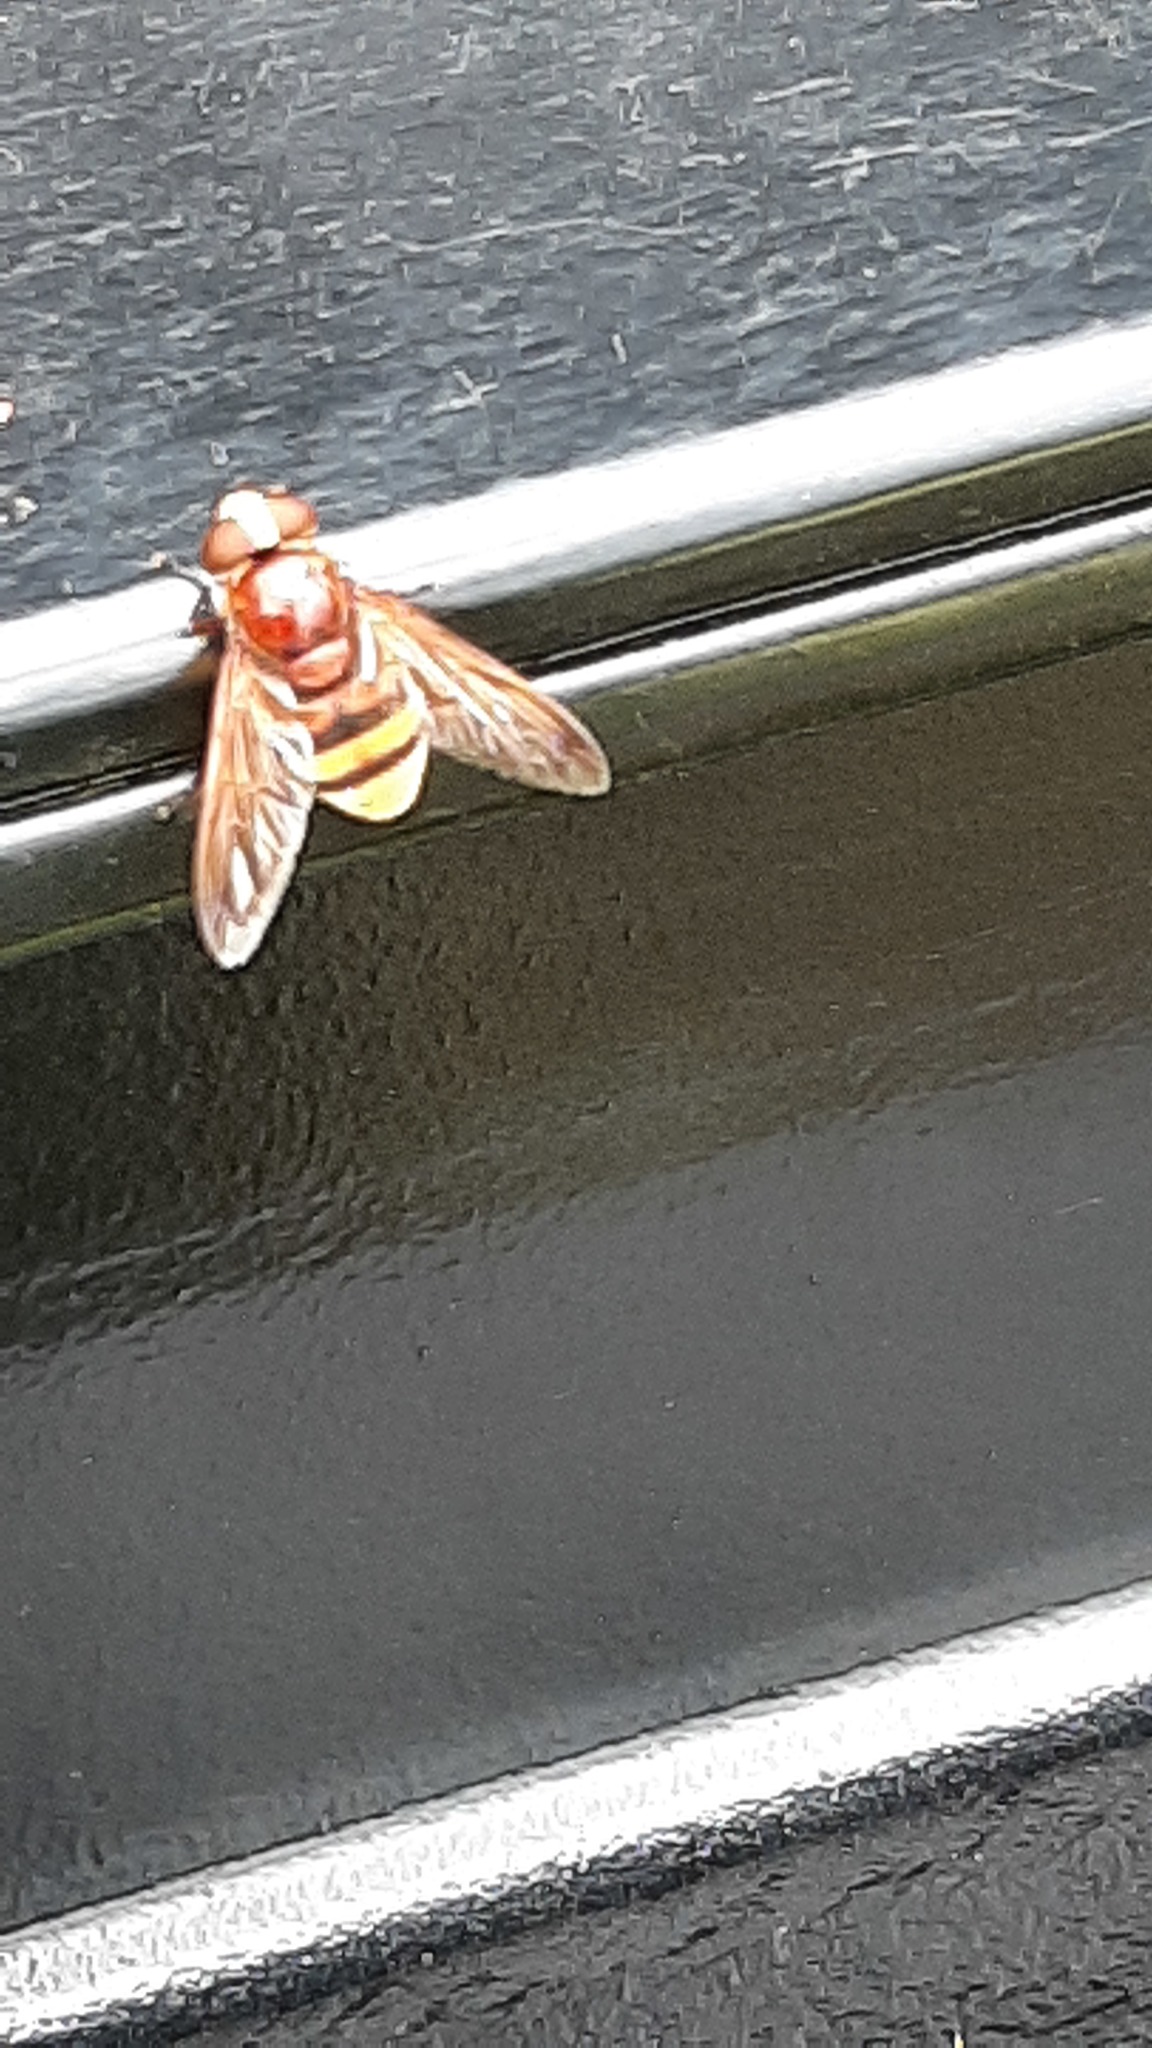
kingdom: Animalia
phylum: Arthropoda
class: Insecta
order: Diptera
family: Syrphidae
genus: Volucella
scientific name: Volucella zonaria
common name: Hornet hoverfly
